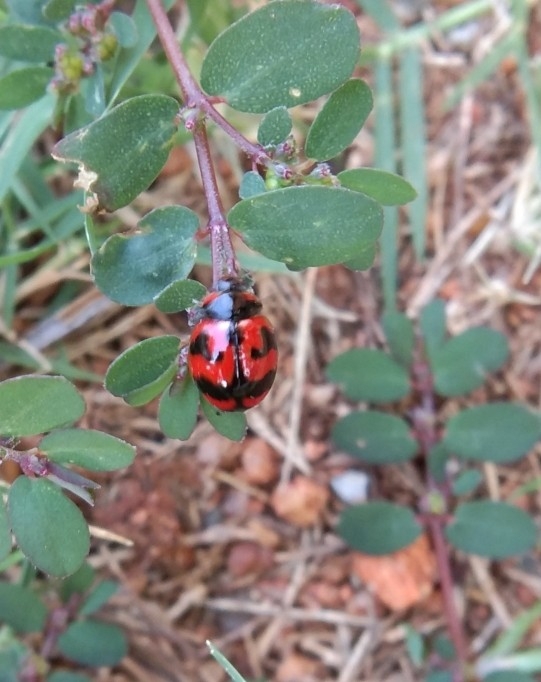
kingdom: Animalia
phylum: Arthropoda
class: Insecta
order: Coleoptera
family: Coccinellidae
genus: Coccinella
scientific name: Coccinella transversalis
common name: Transverse lady beetle
